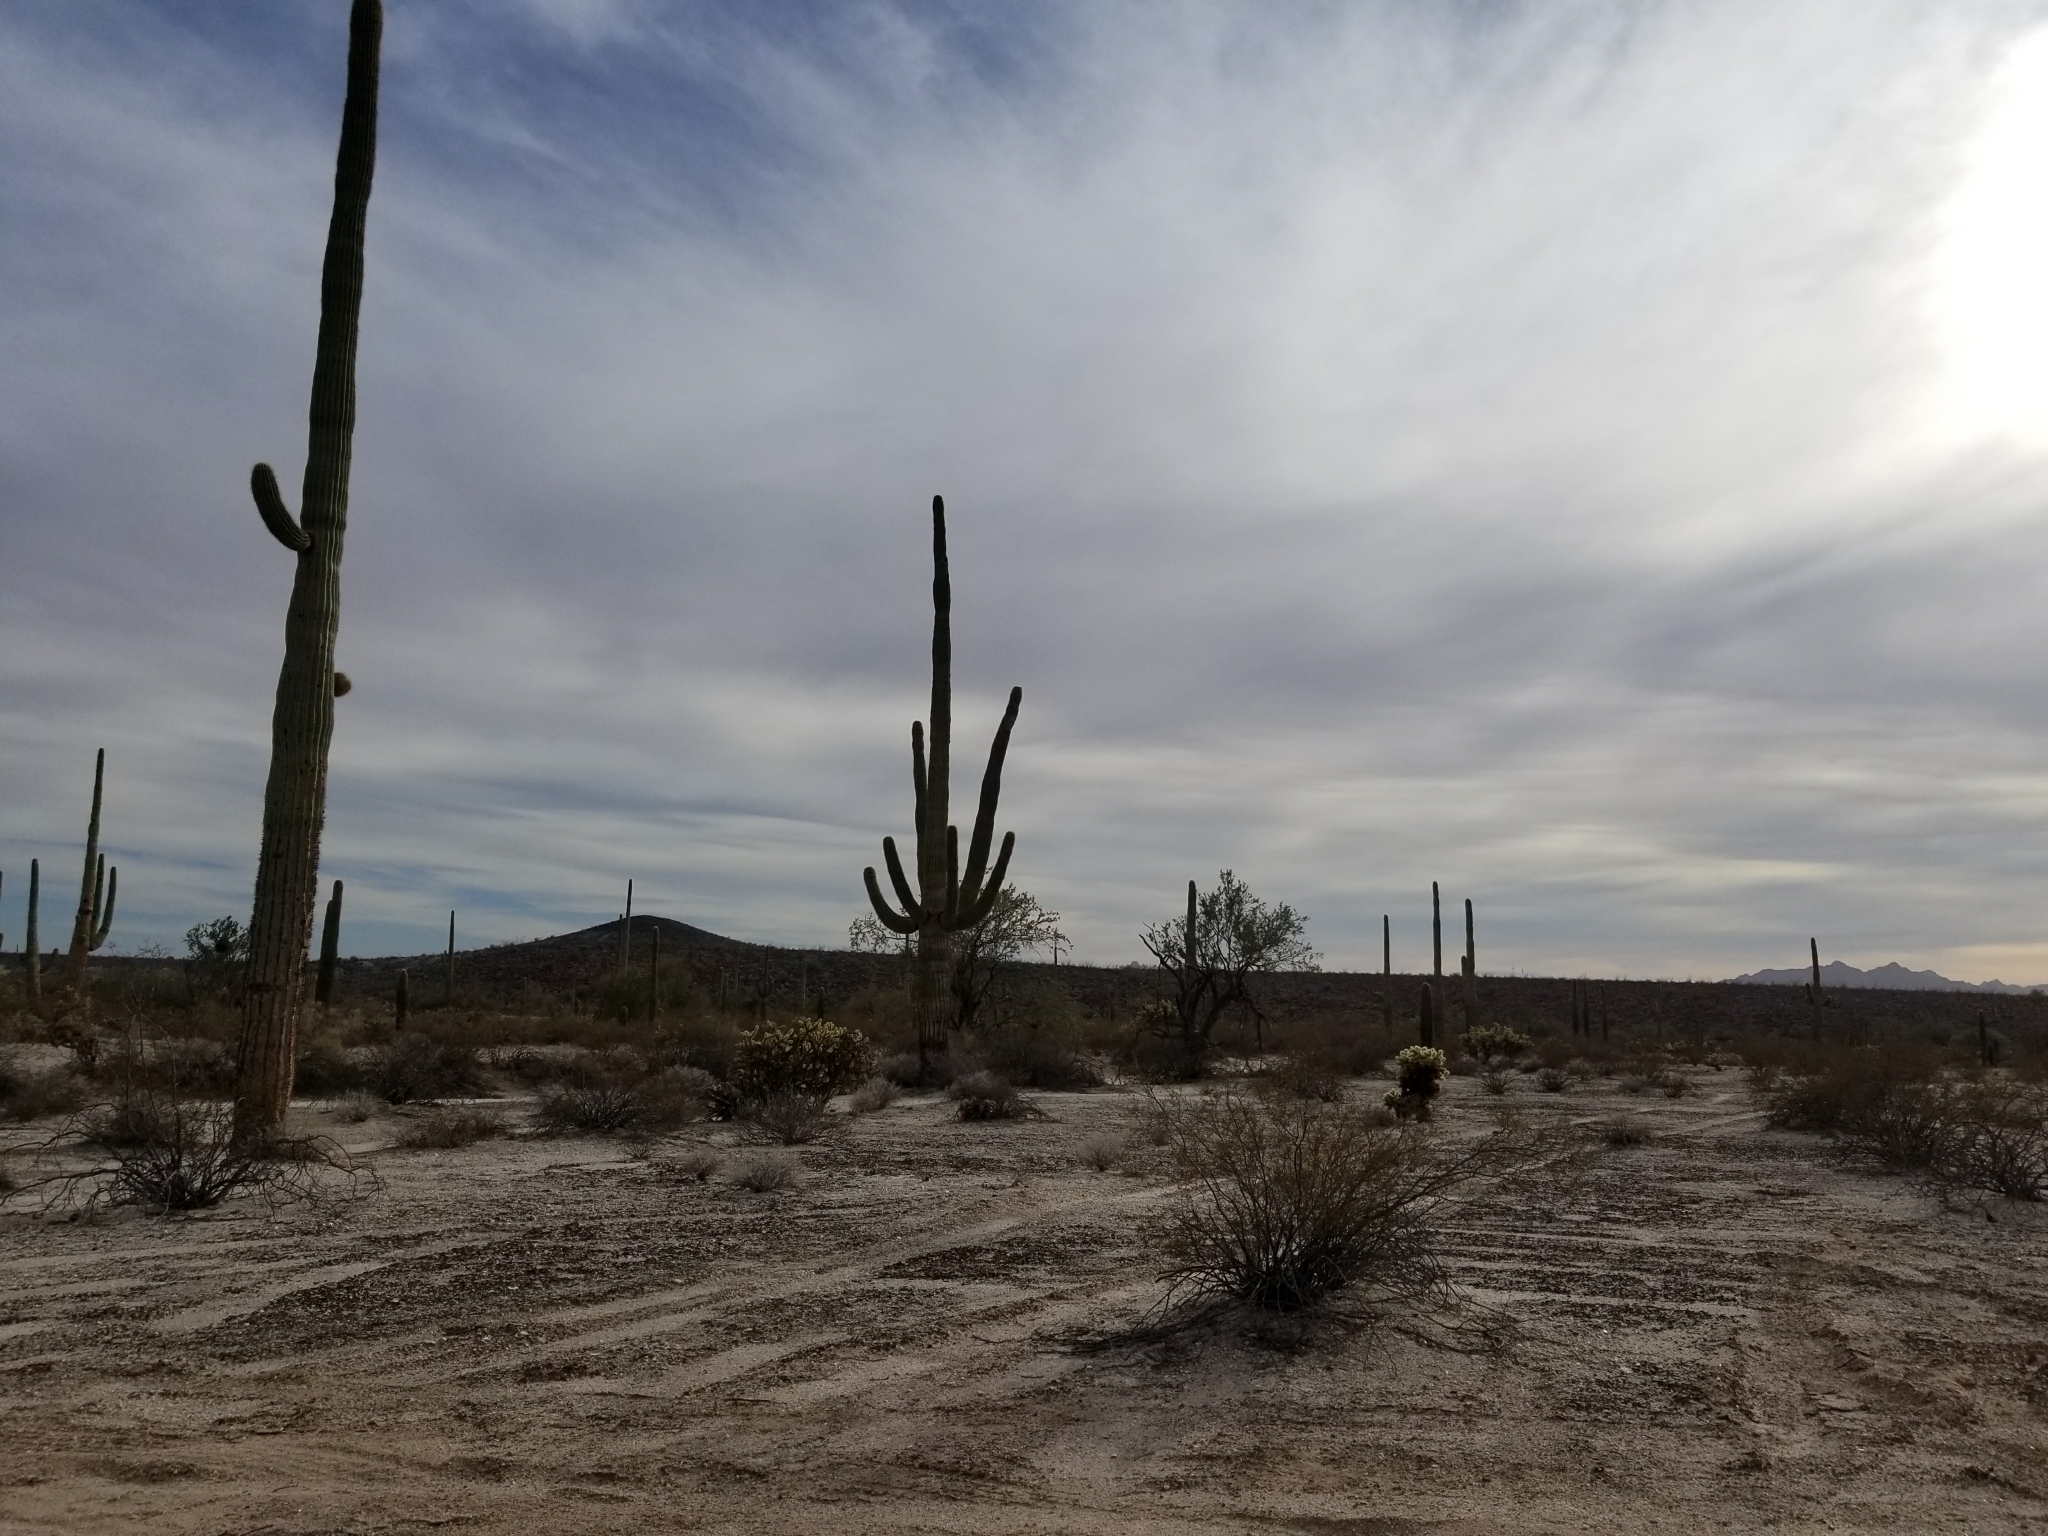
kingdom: Plantae
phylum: Tracheophyta
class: Magnoliopsida
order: Caryophyllales
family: Cactaceae
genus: Carnegiea
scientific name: Carnegiea gigantea
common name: Saguaro
